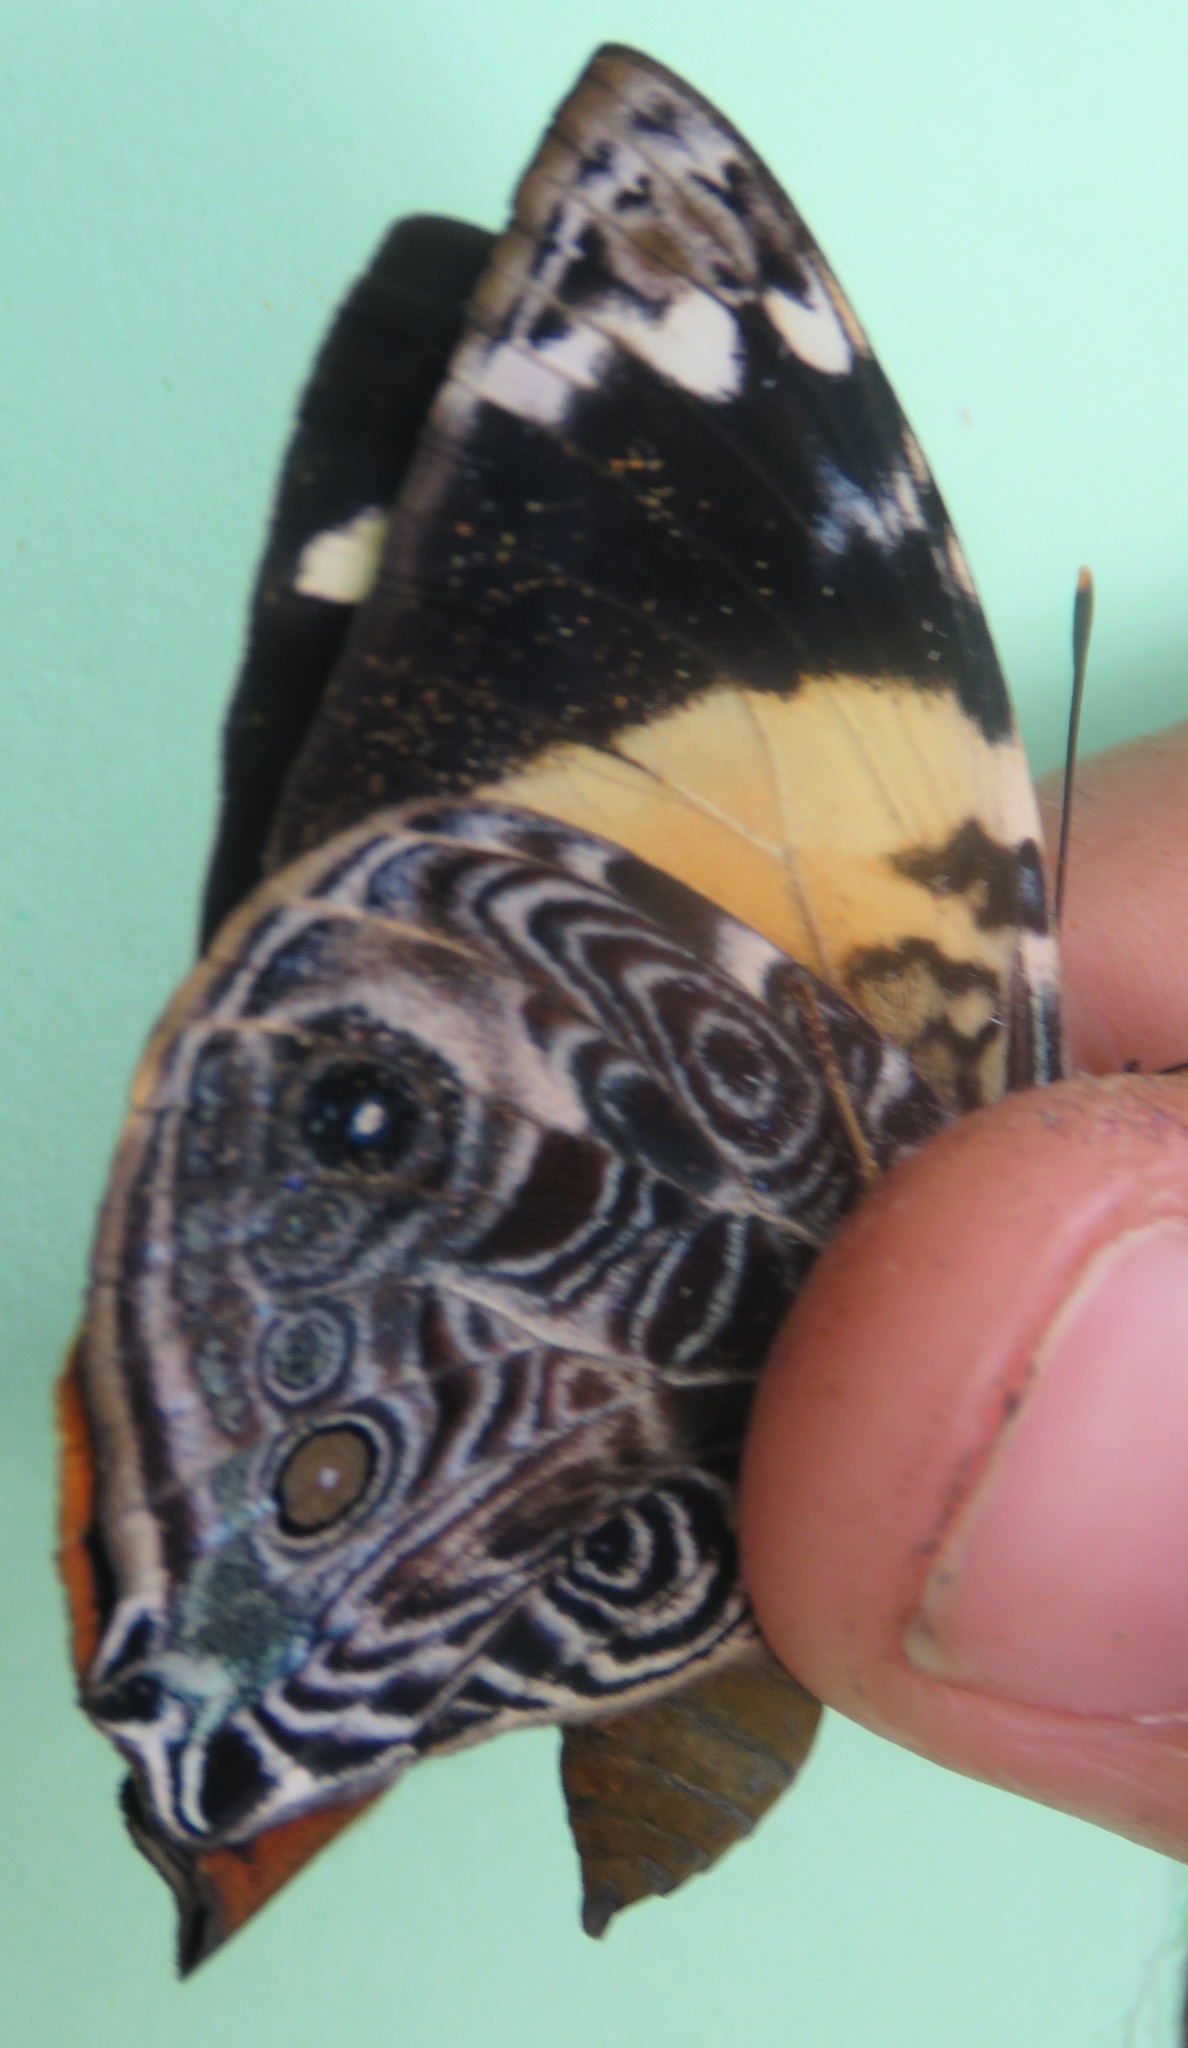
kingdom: Animalia
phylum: Arthropoda
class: Insecta
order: Lepidoptera
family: Nymphalidae
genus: Smyrna
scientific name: Smyrna blomfildia
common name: Blomfild's beauty
